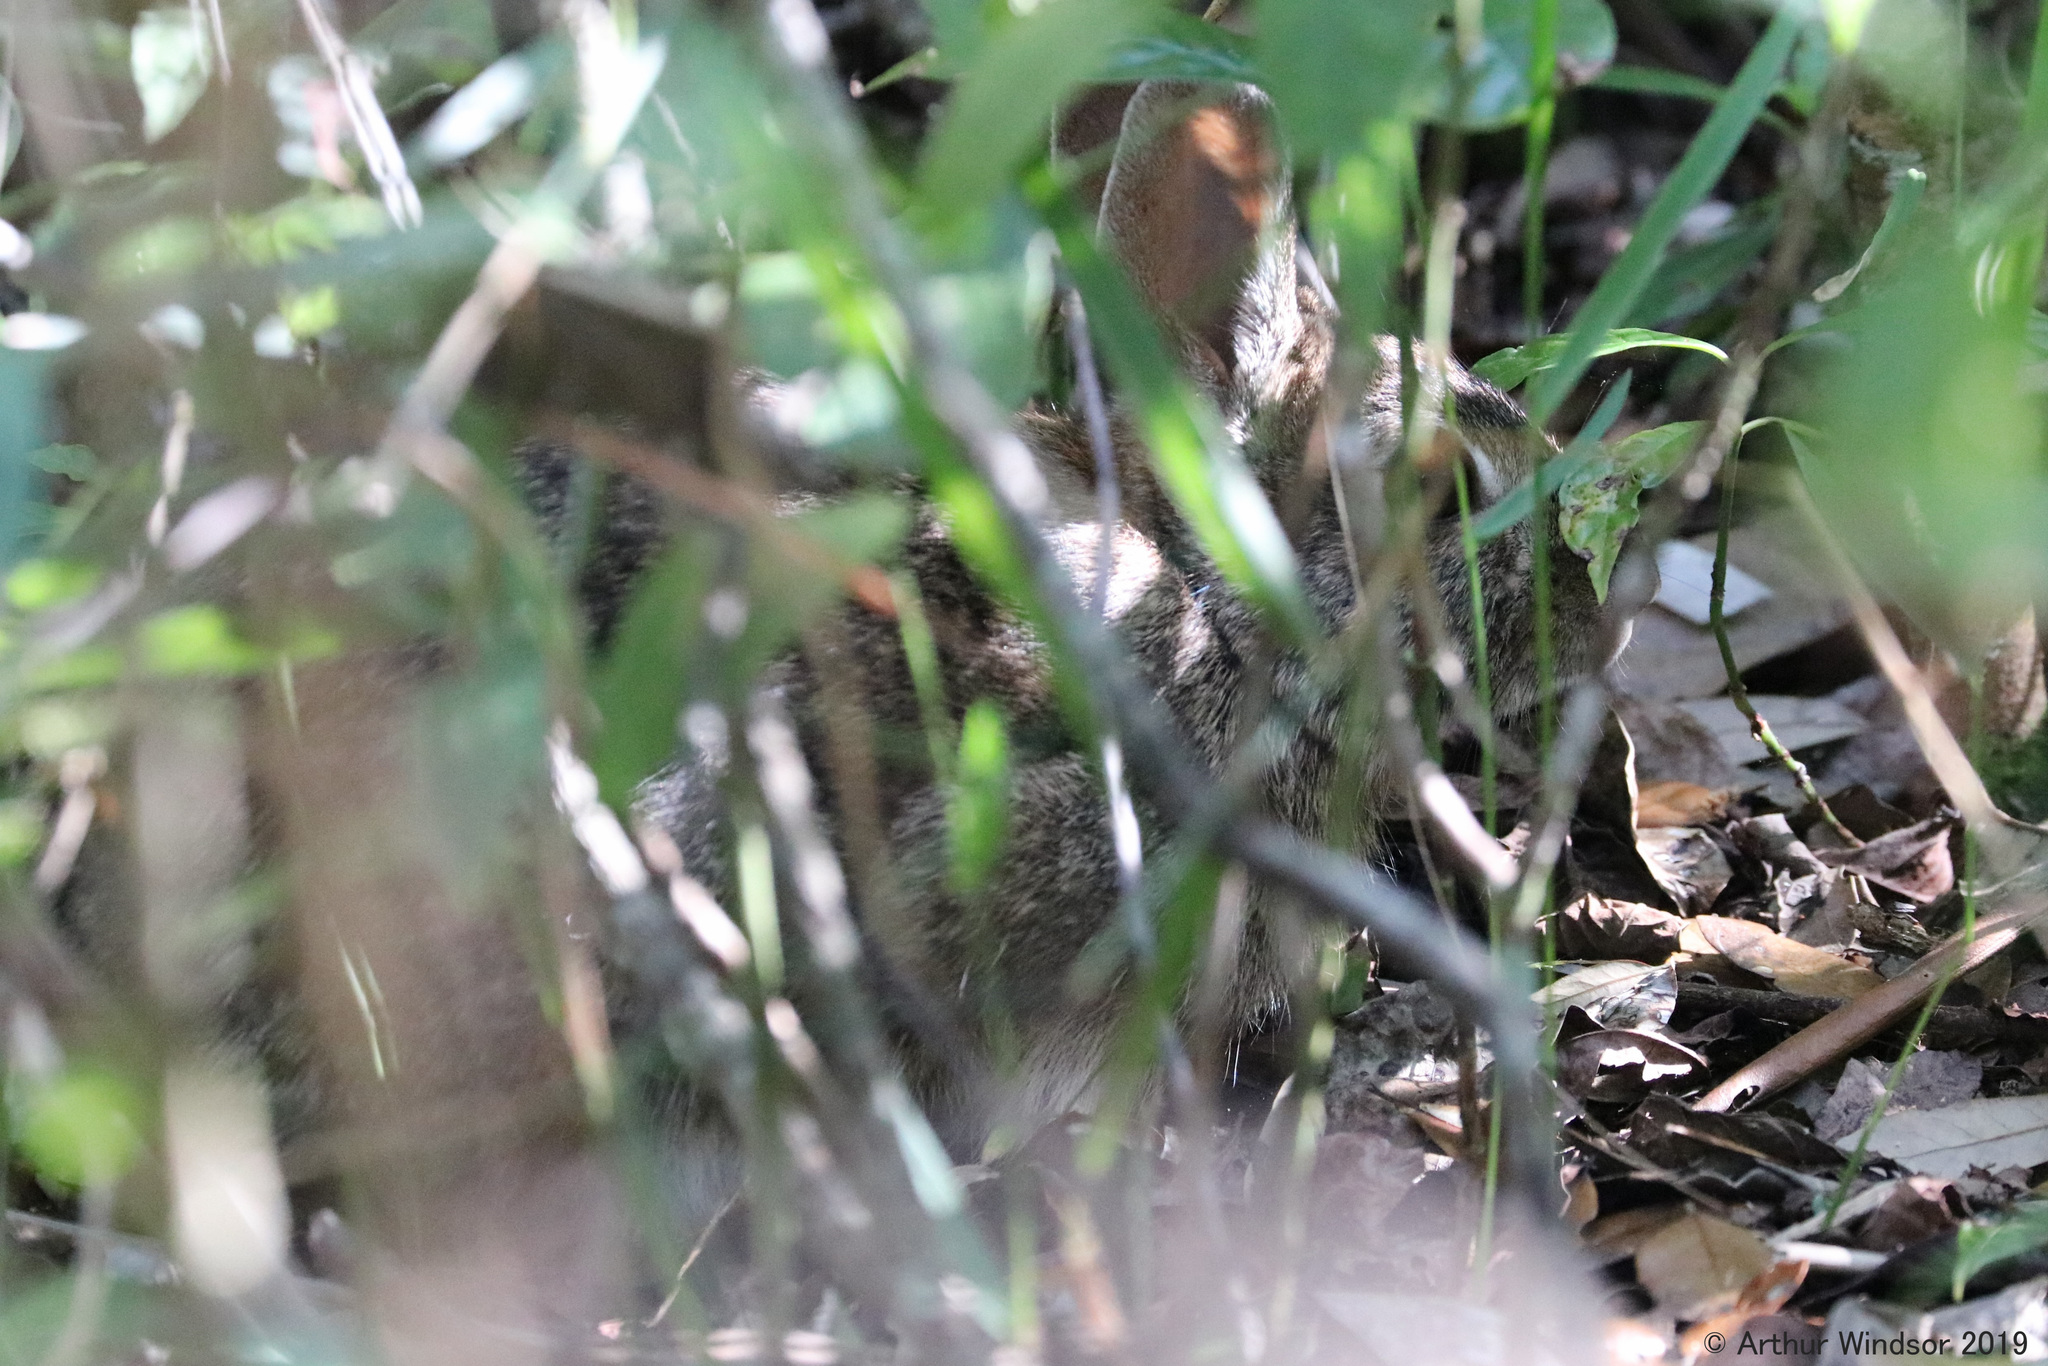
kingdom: Animalia
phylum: Chordata
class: Mammalia
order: Lagomorpha
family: Leporidae
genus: Sylvilagus
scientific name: Sylvilagus floridanus
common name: Eastern cottontail
